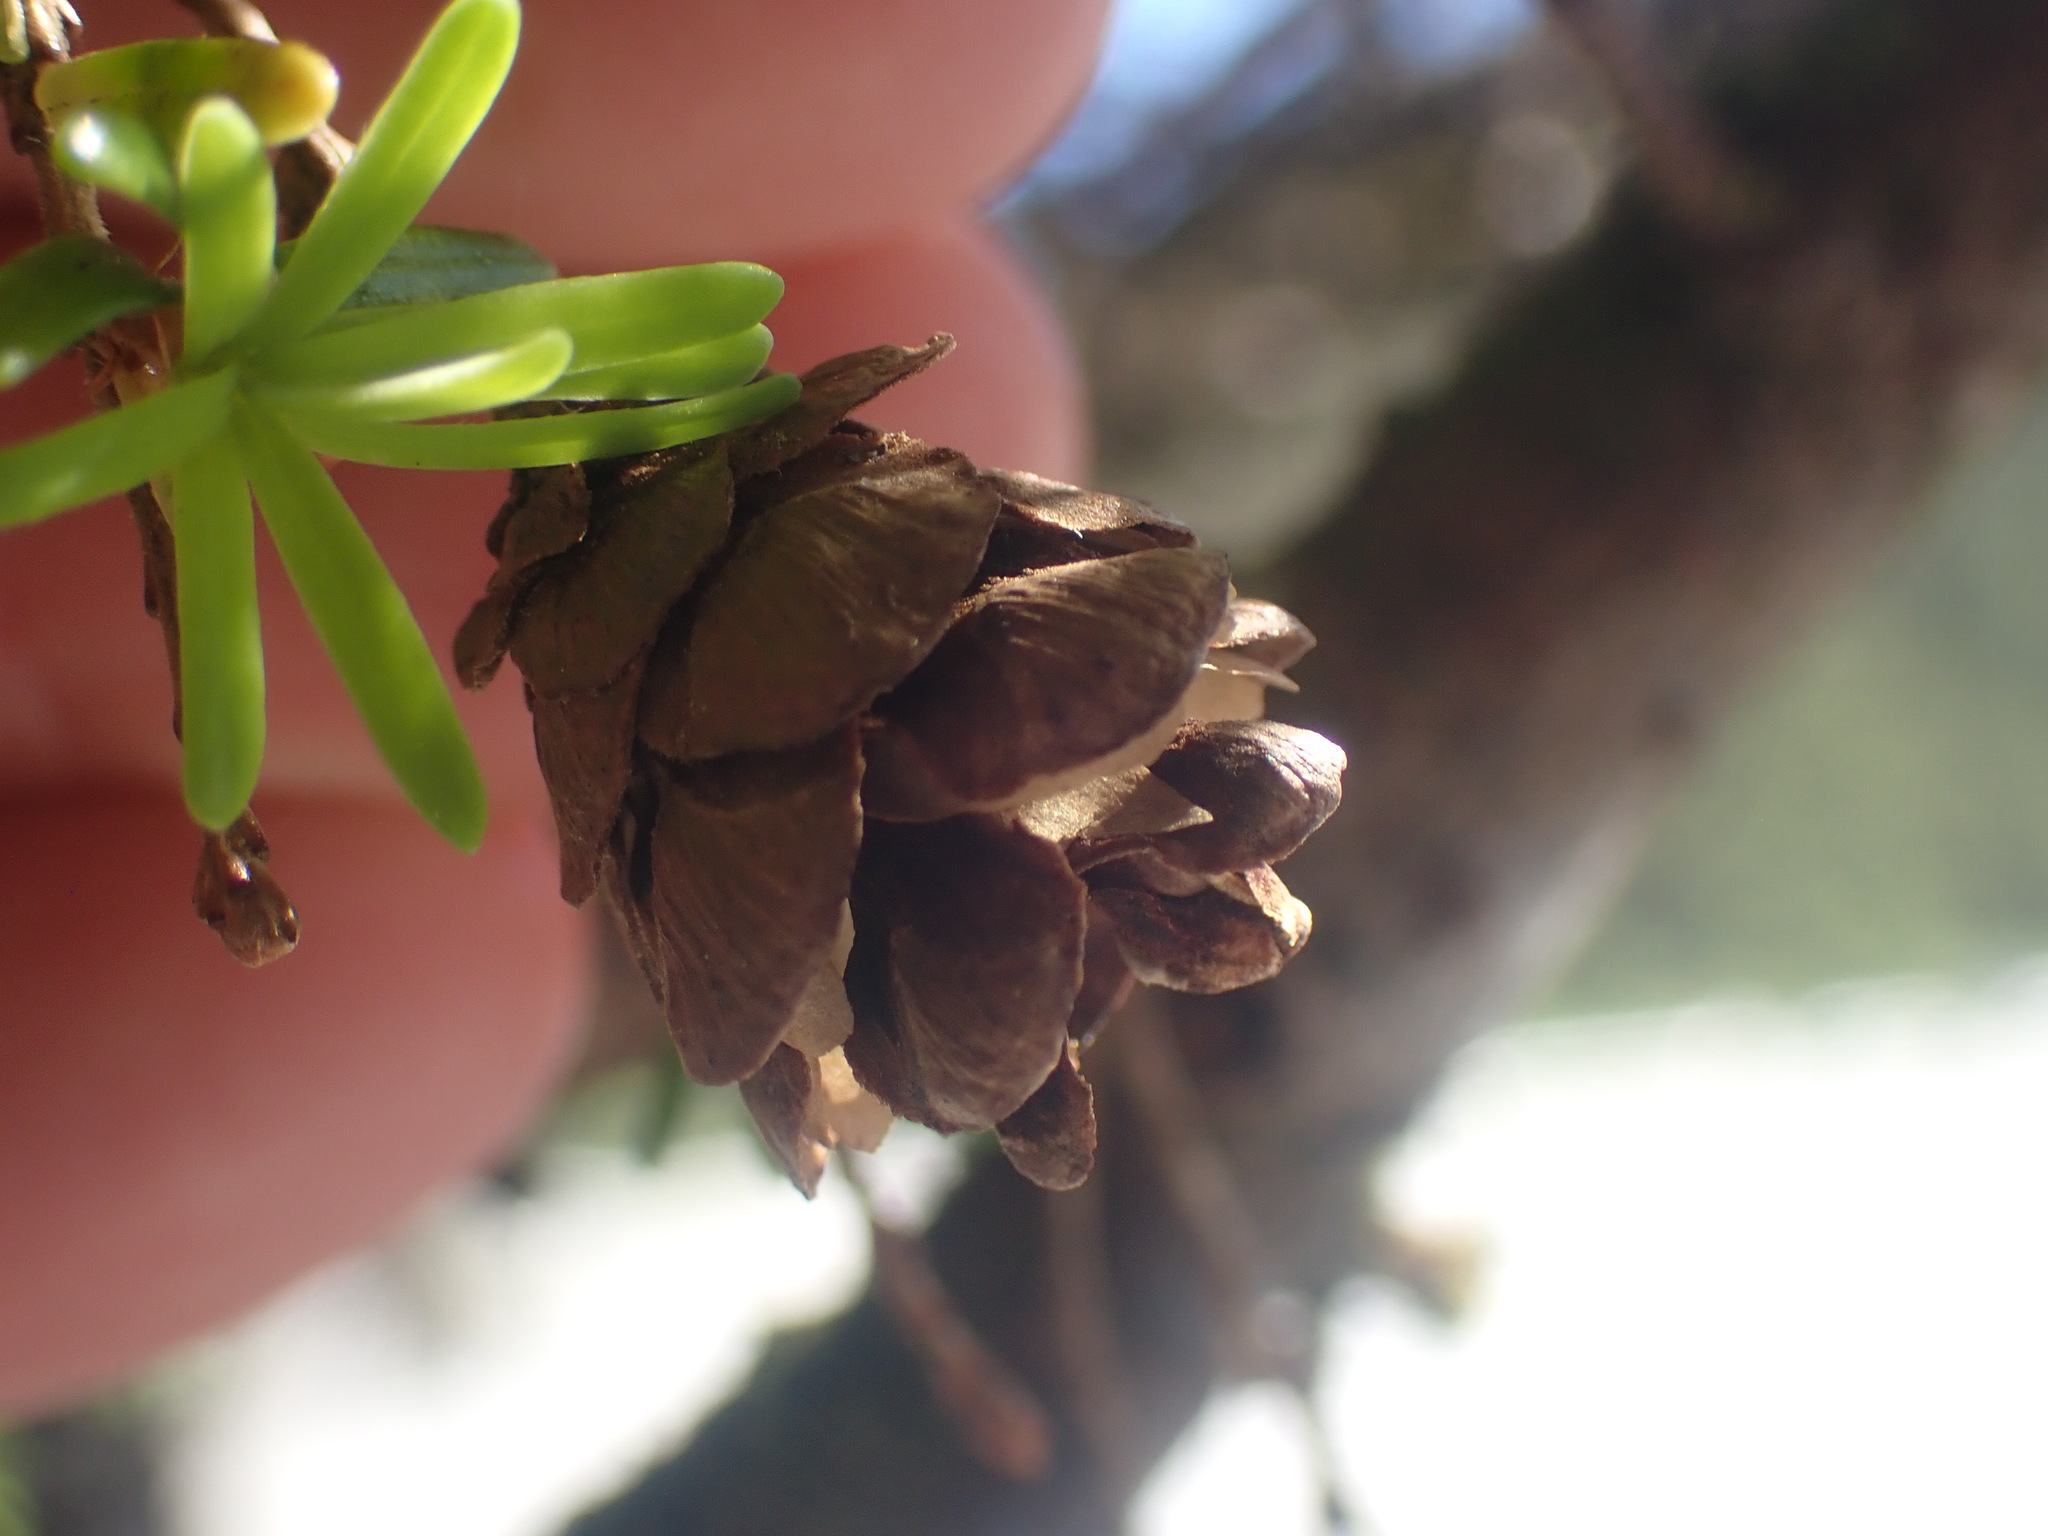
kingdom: Plantae
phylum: Tracheophyta
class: Pinopsida
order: Pinales
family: Pinaceae
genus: Tsuga
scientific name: Tsuga heterophylla
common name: Western hemlock
